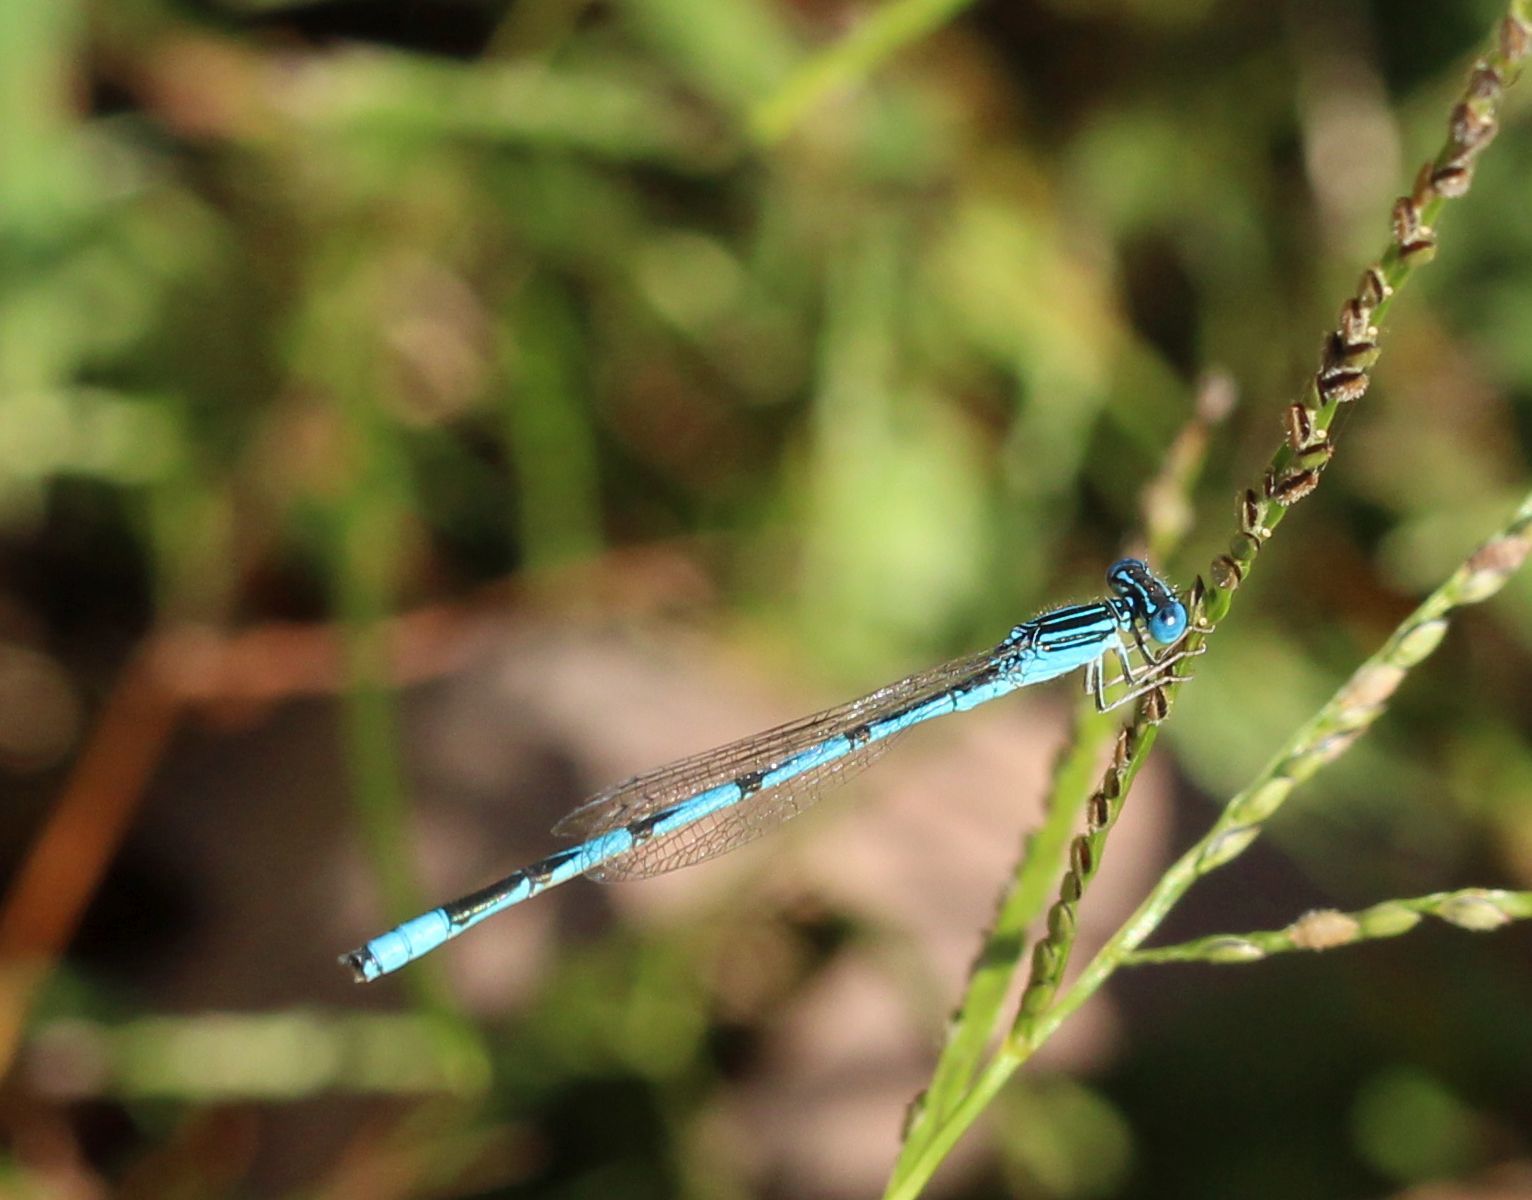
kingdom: Animalia
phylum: Arthropoda
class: Insecta
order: Odonata
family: Coenagrionidae
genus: Enallagma
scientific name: Enallagma basidens
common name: Double-striped bluet
